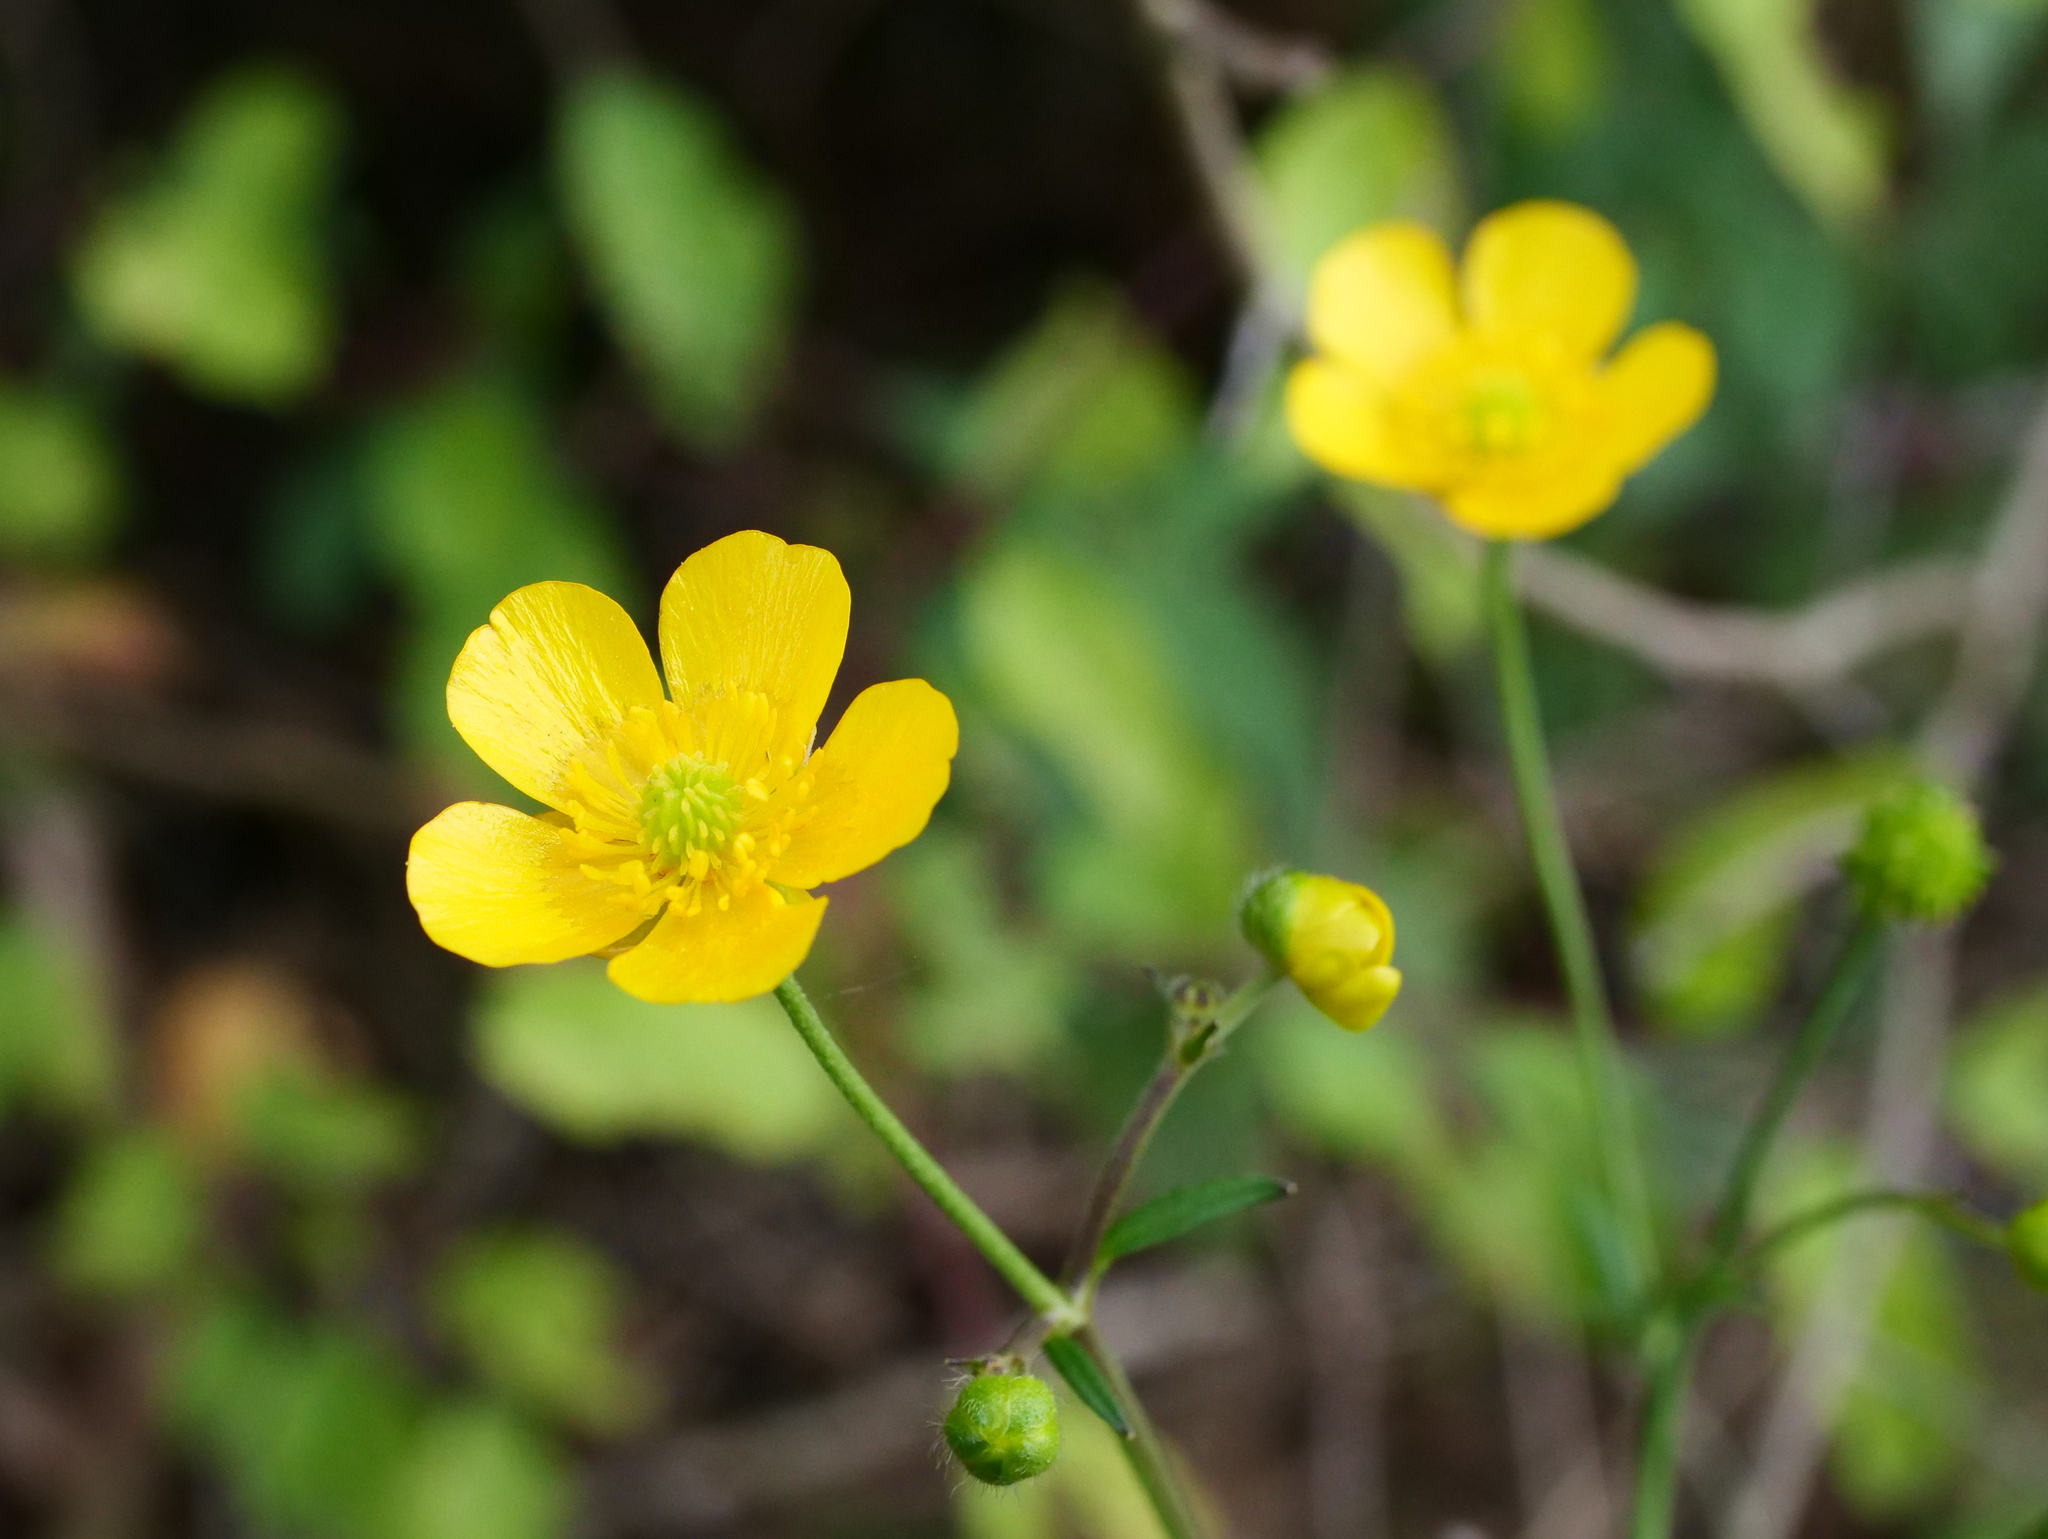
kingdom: Plantae
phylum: Tracheophyta
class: Magnoliopsida
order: Ranunculales
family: Ranunculaceae
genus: Ranunculus
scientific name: Ranunculus acris
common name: Meadow buttercup
